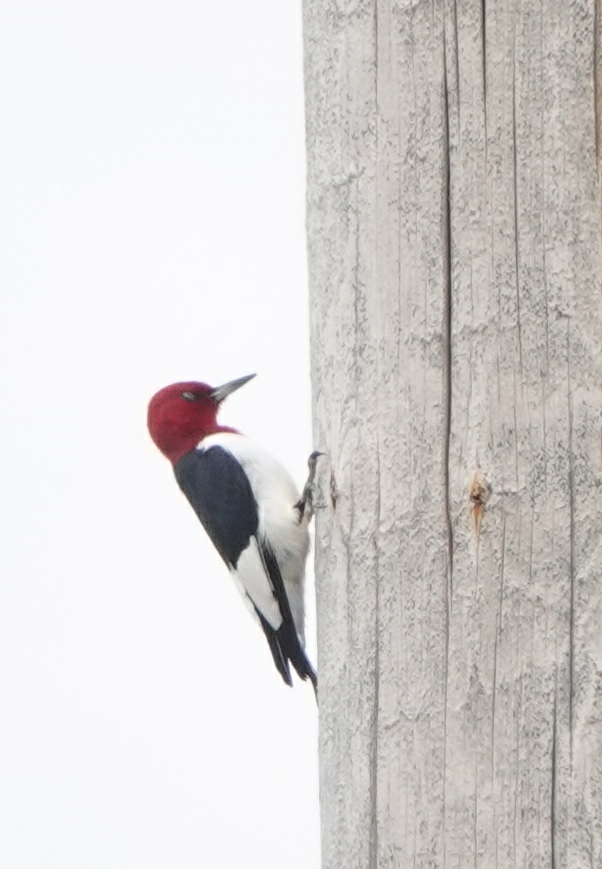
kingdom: Animalia
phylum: Chordata
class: Aves
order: Piciformes
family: Picidae
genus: Melanerpes
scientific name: Melanerpes erythrocephalus
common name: Red-headed woodpecker
